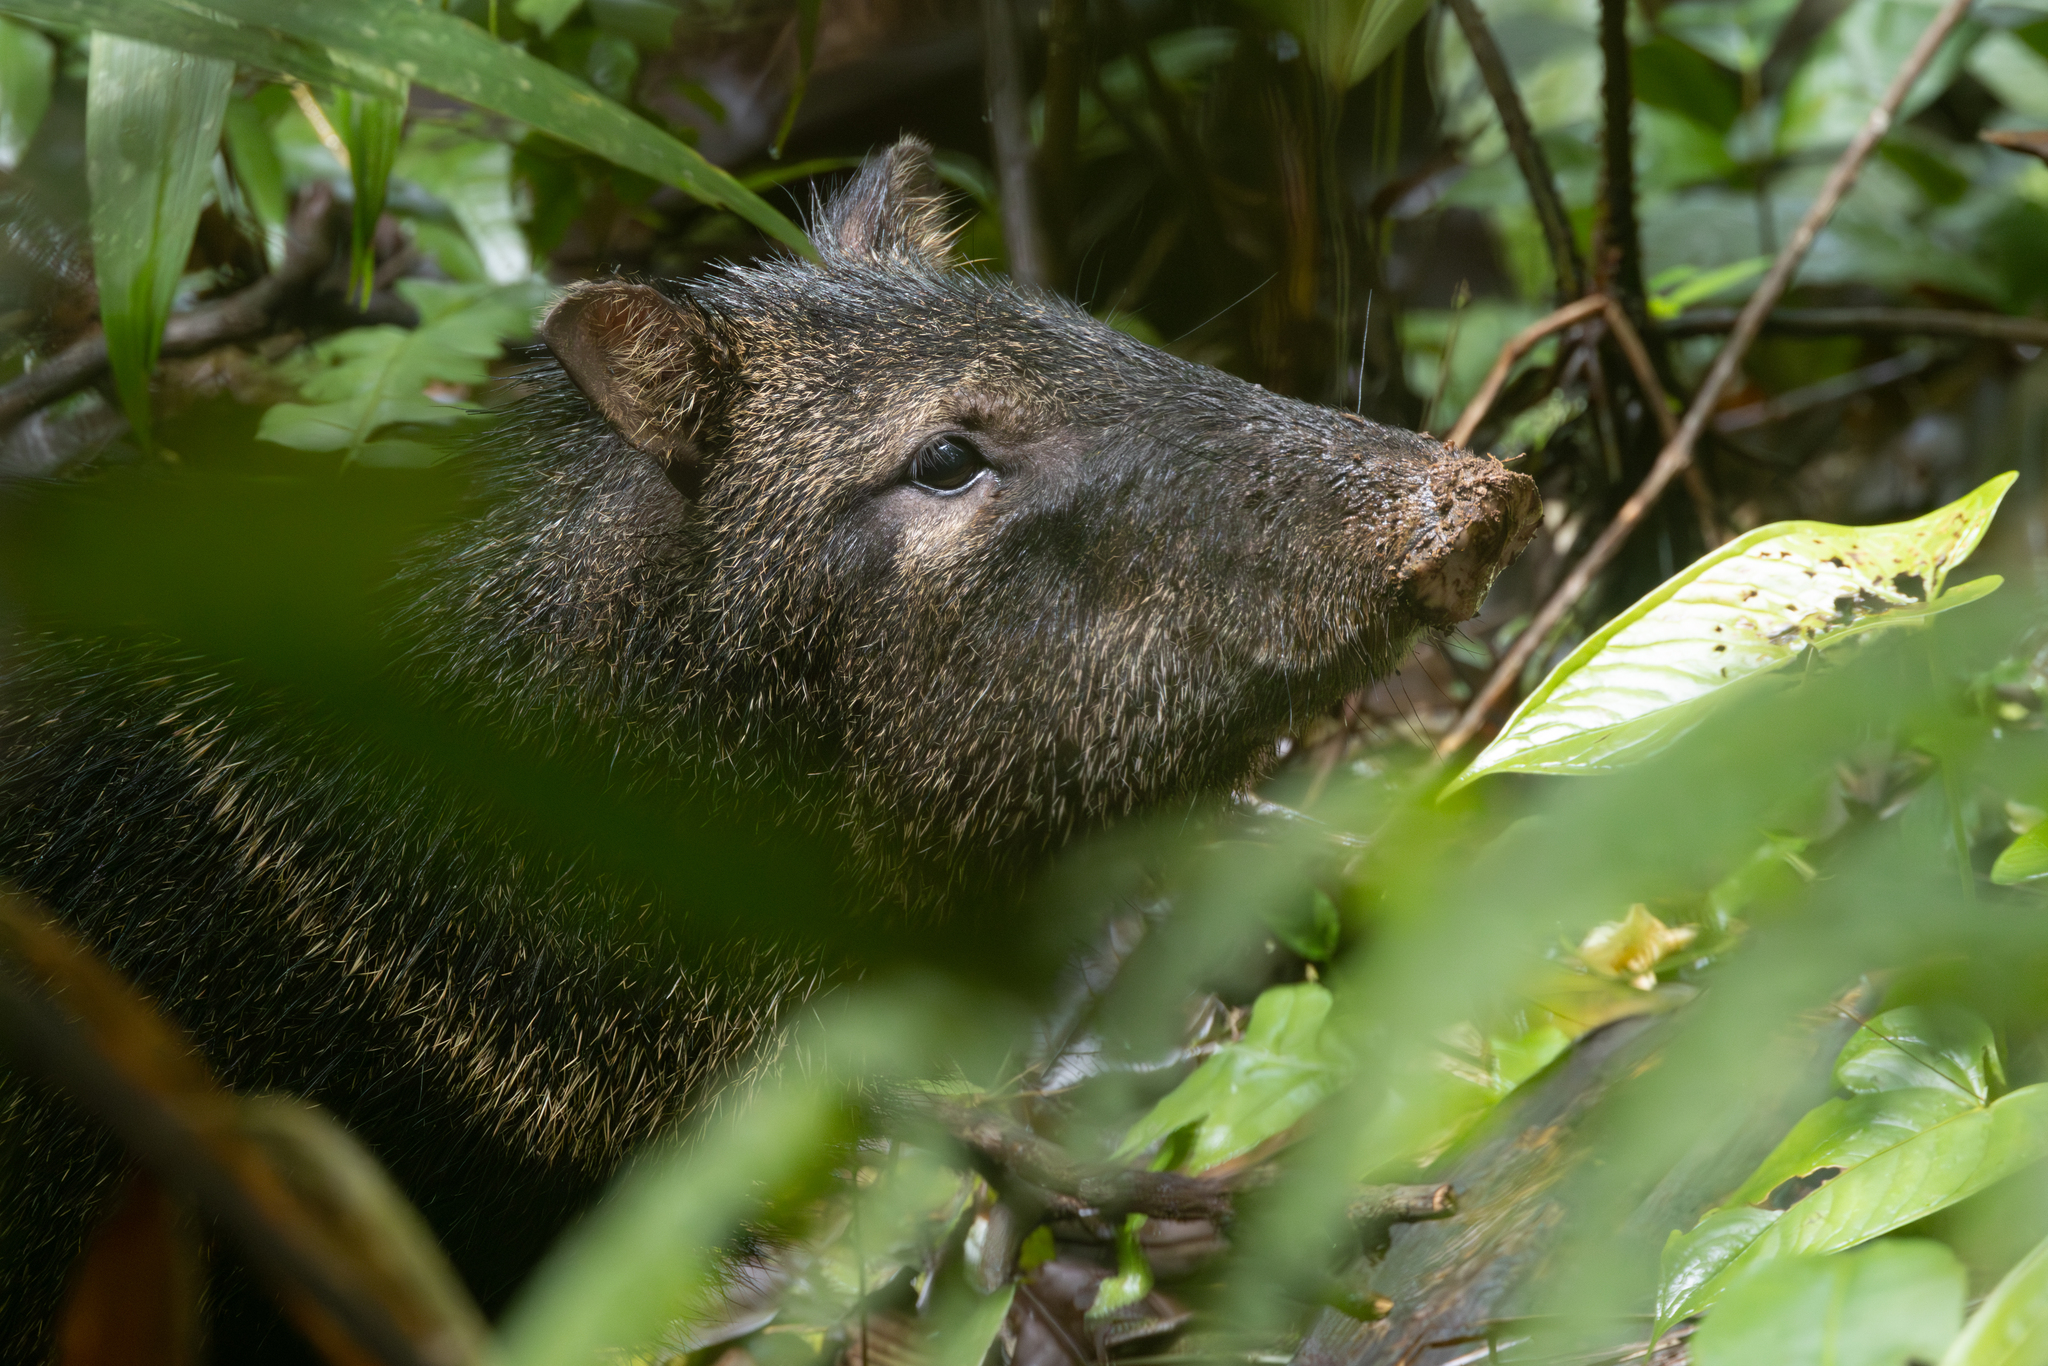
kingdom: Animalia
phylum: Chordata
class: Mammalia
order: Artiodactyla
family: Tayassuidae
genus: Pecari
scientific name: Pecari tajacu
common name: Collared peccary
